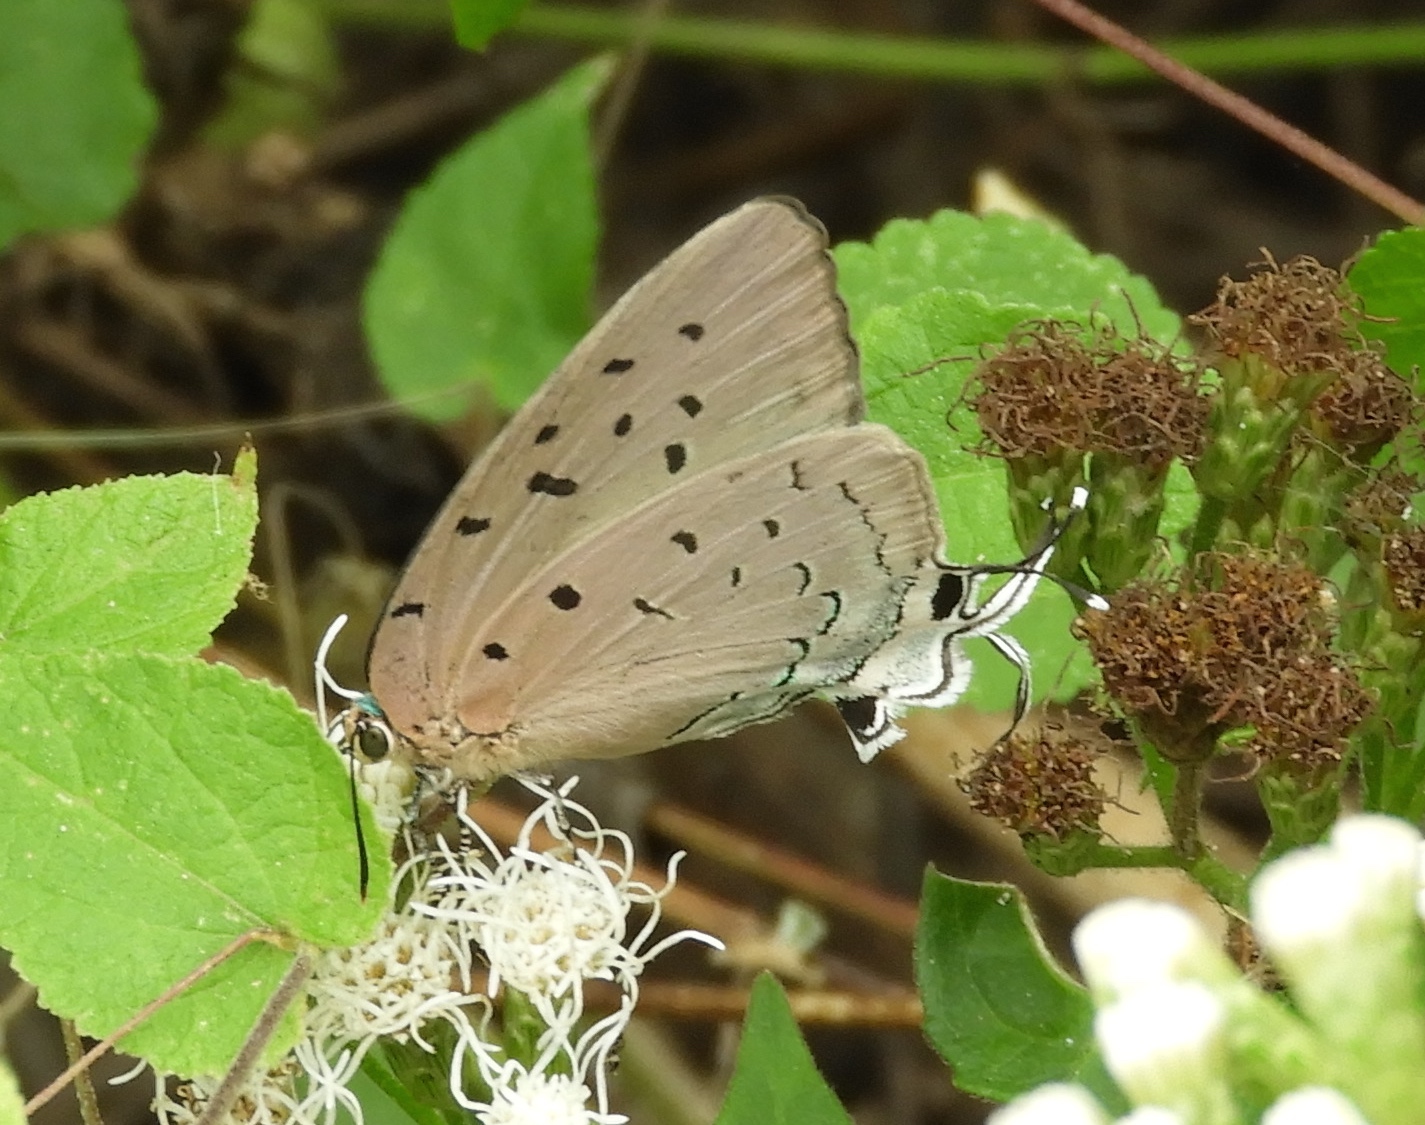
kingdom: Animalia
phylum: Arthropoda
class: Insecta
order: Lepidoptera
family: Lycaenidae
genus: Pseudolycaena
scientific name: Pseudolycaena damo
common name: Sky-blue hairstreak
